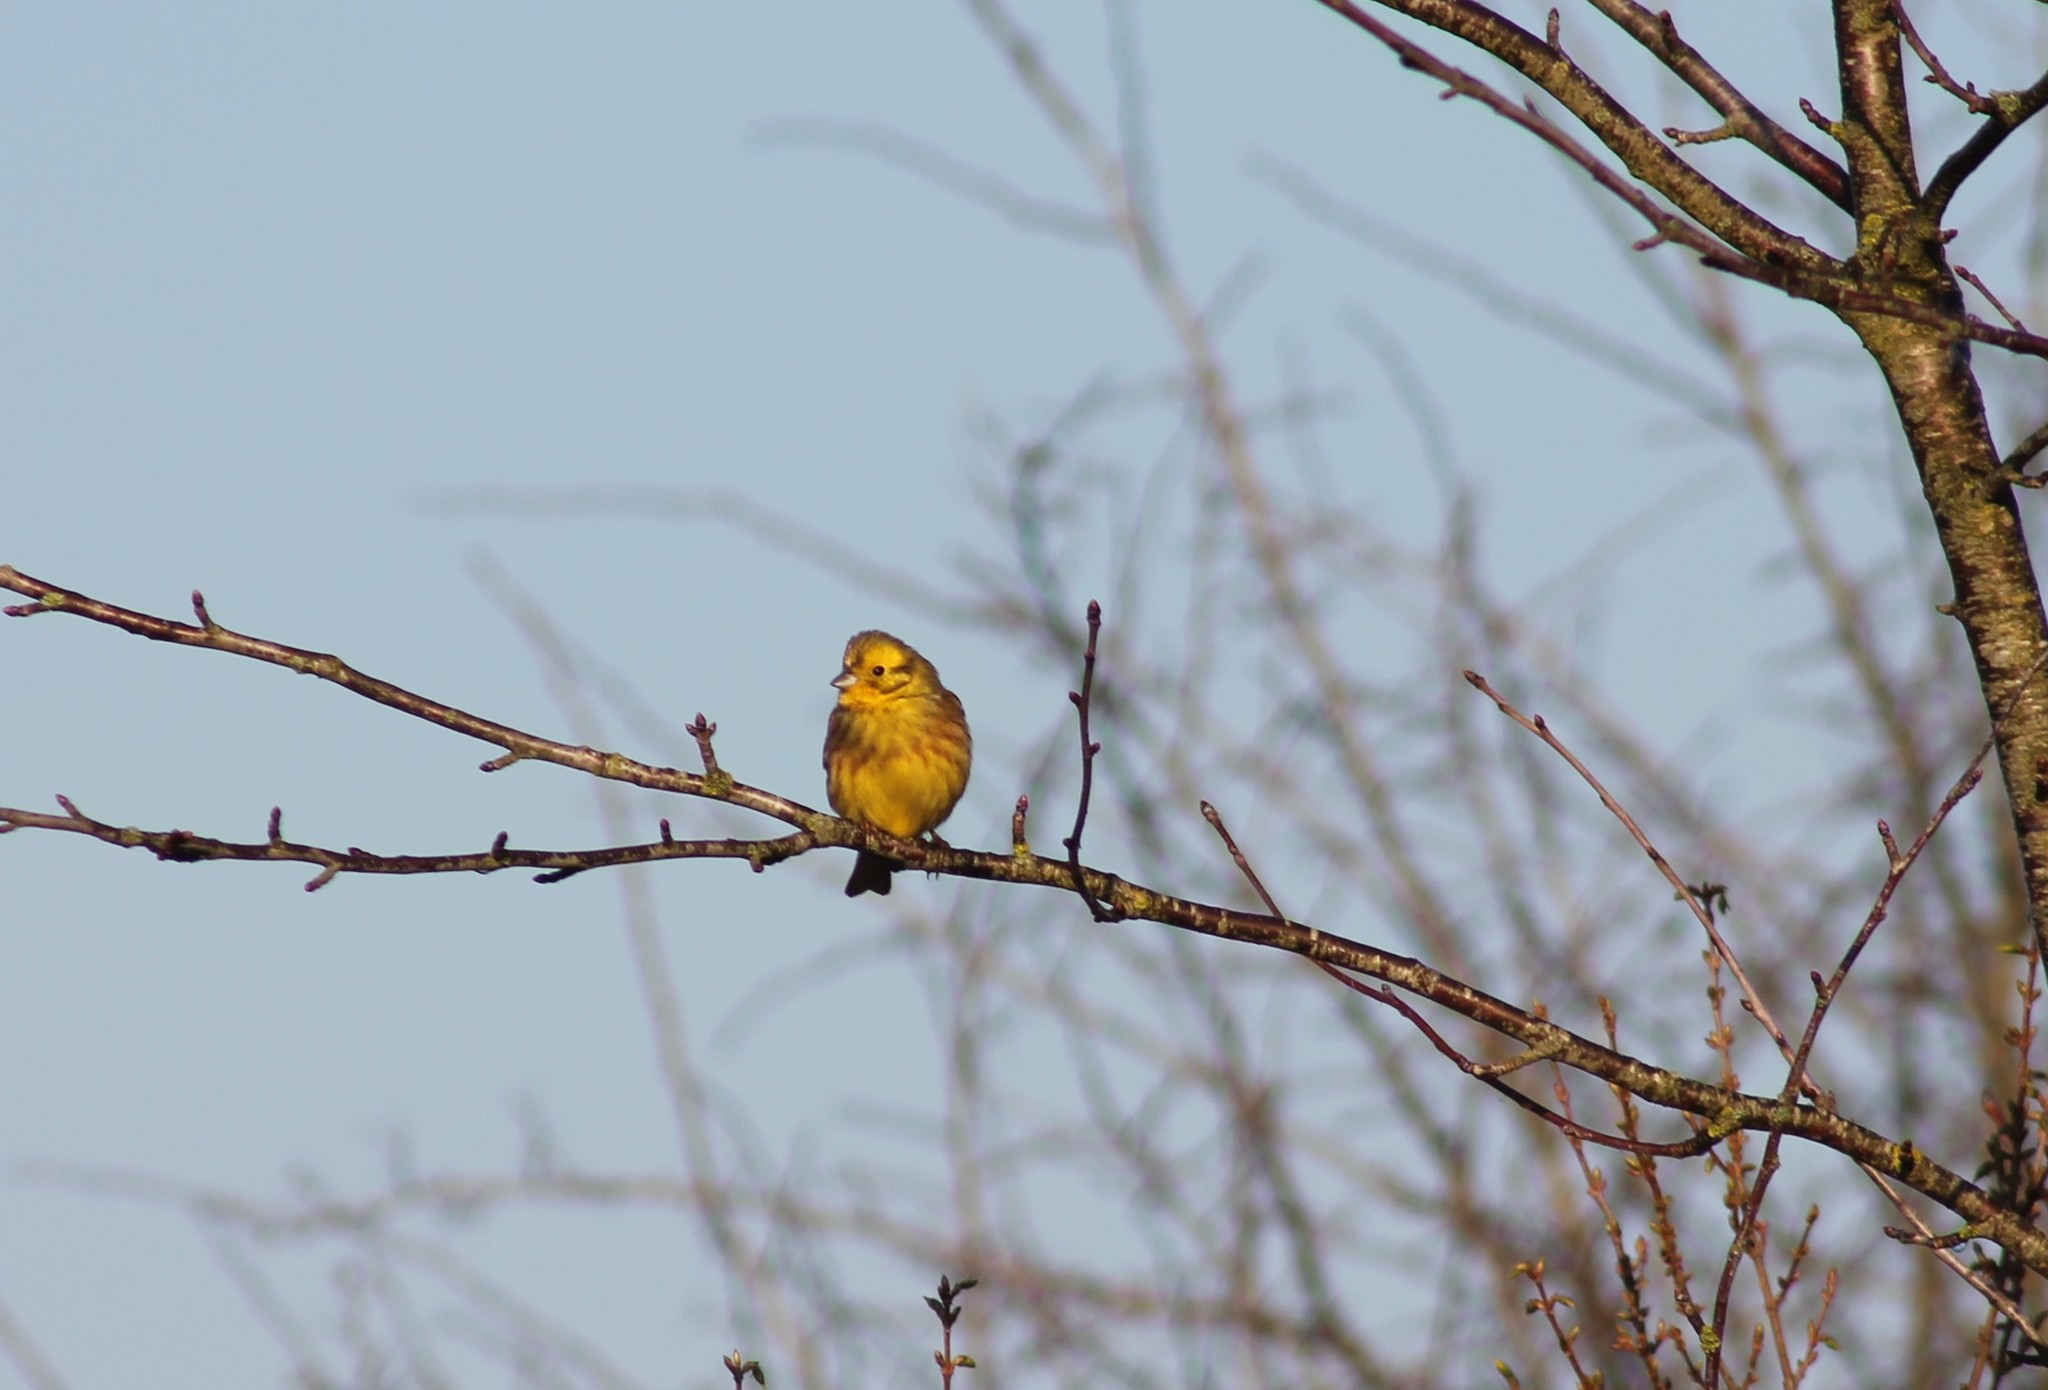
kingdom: Animalia
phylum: Chordata
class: Aves
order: Passeriformes
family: Emberizidae
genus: Emberiza
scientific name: Emberiza citrinella
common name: Yellowhammer
